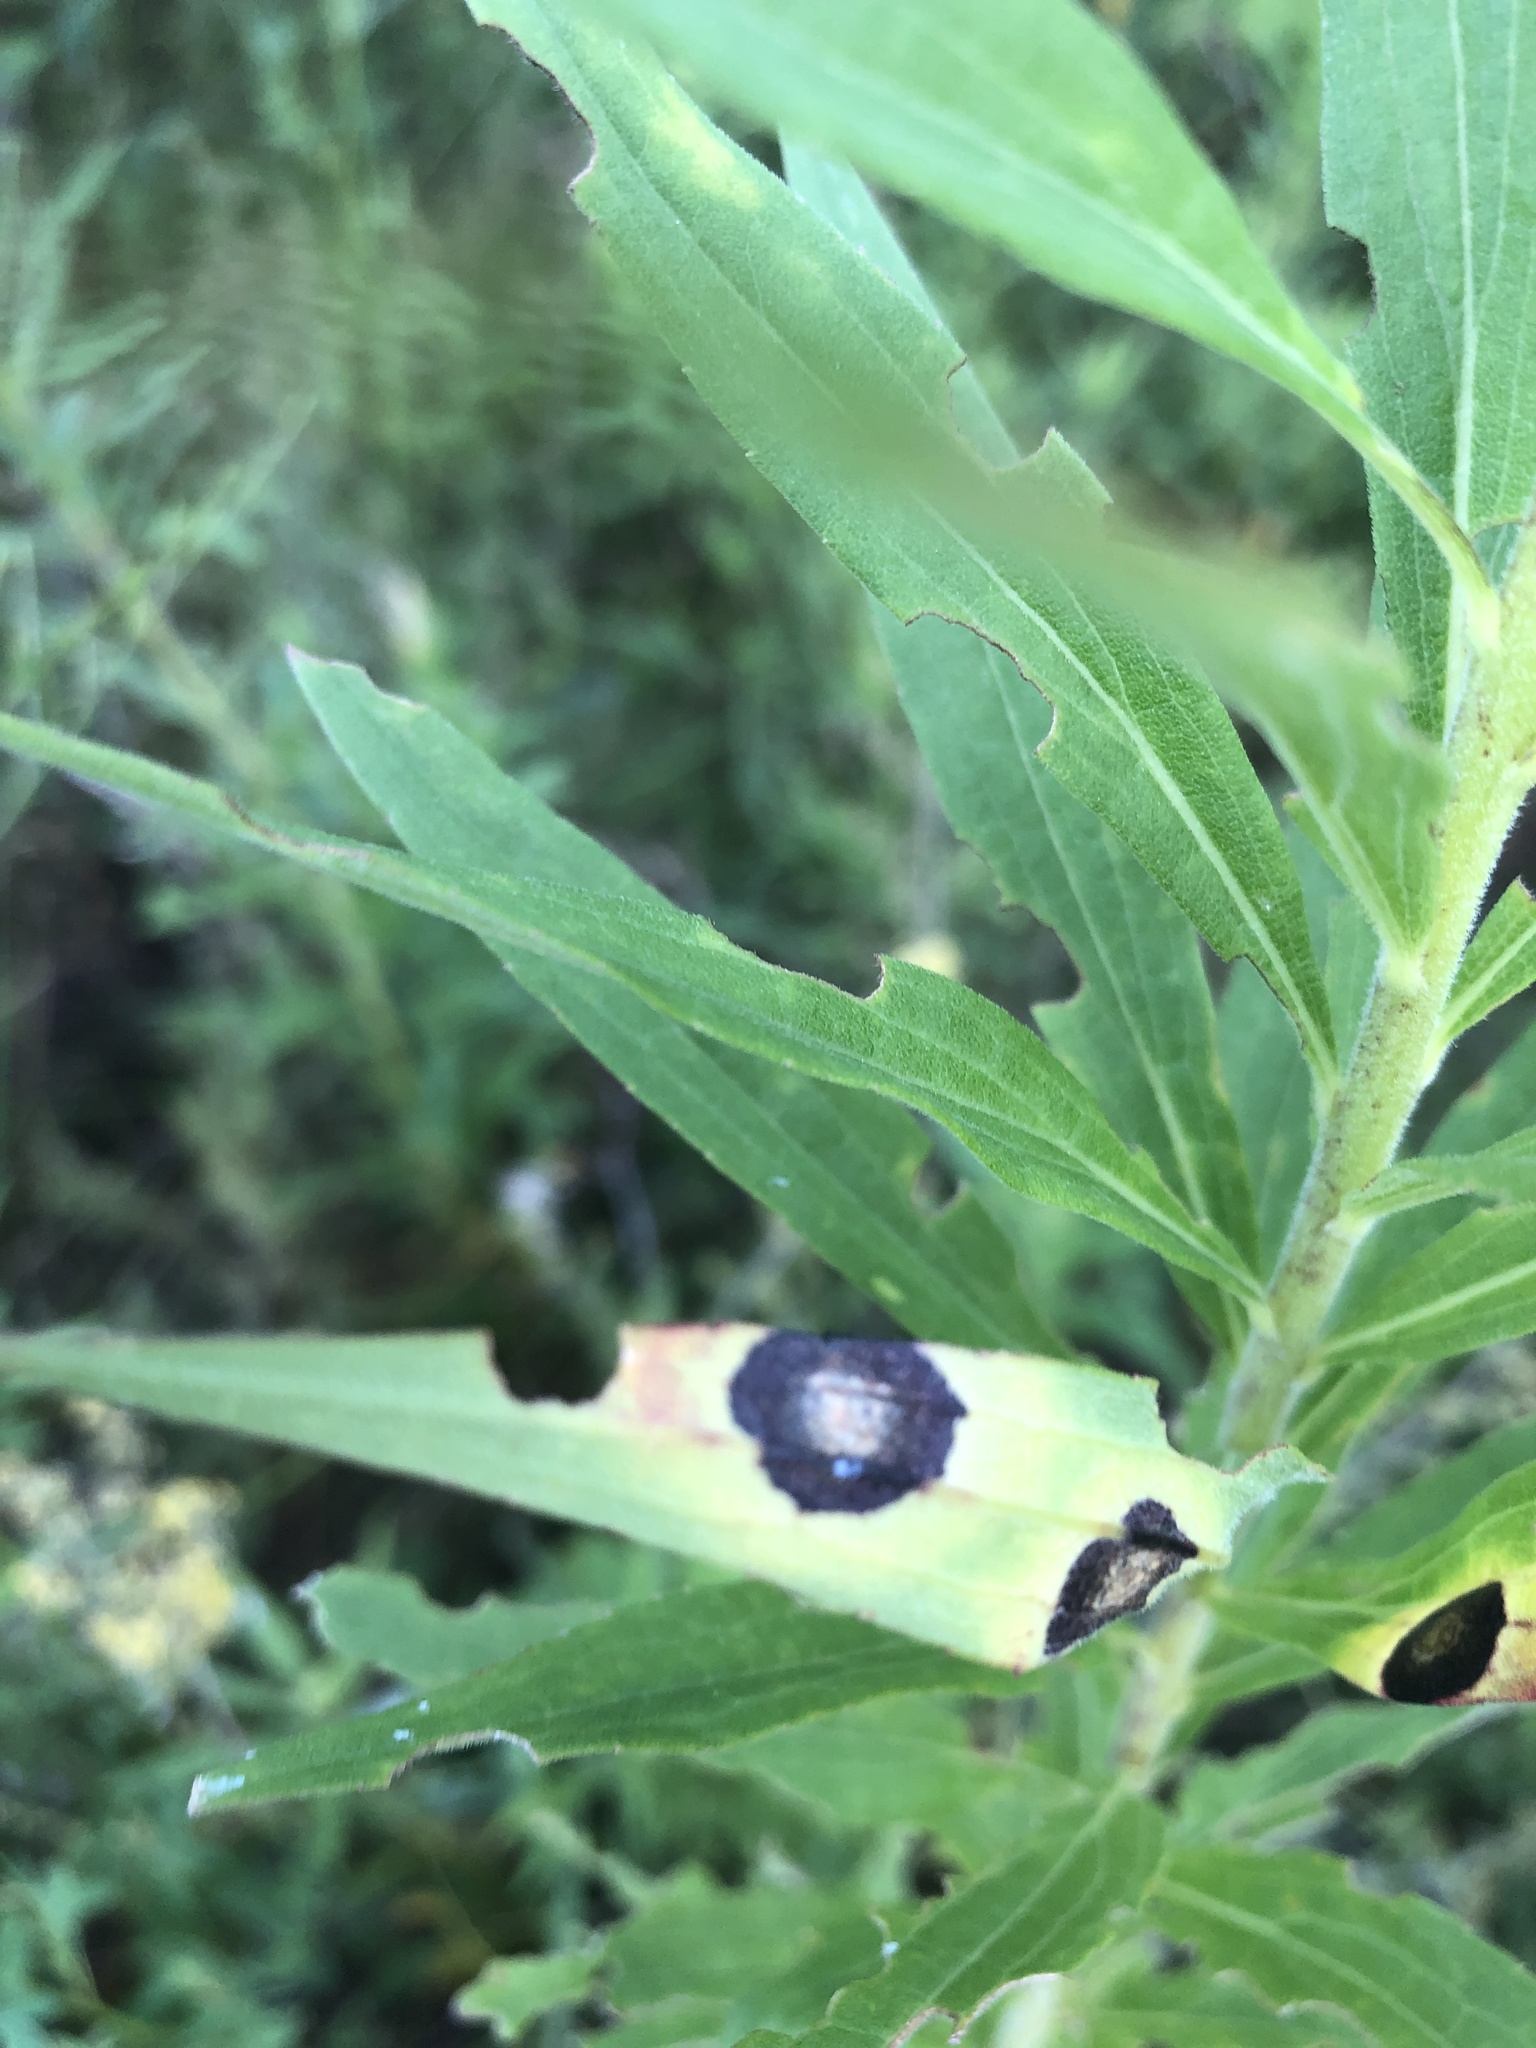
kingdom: Animalia
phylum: Arthropoda
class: Insecta
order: Diptera
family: Cecidomyiidae
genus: Asteromyia
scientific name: Asteromyia carbonifera
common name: Carbonifera goldenrod gall midge
